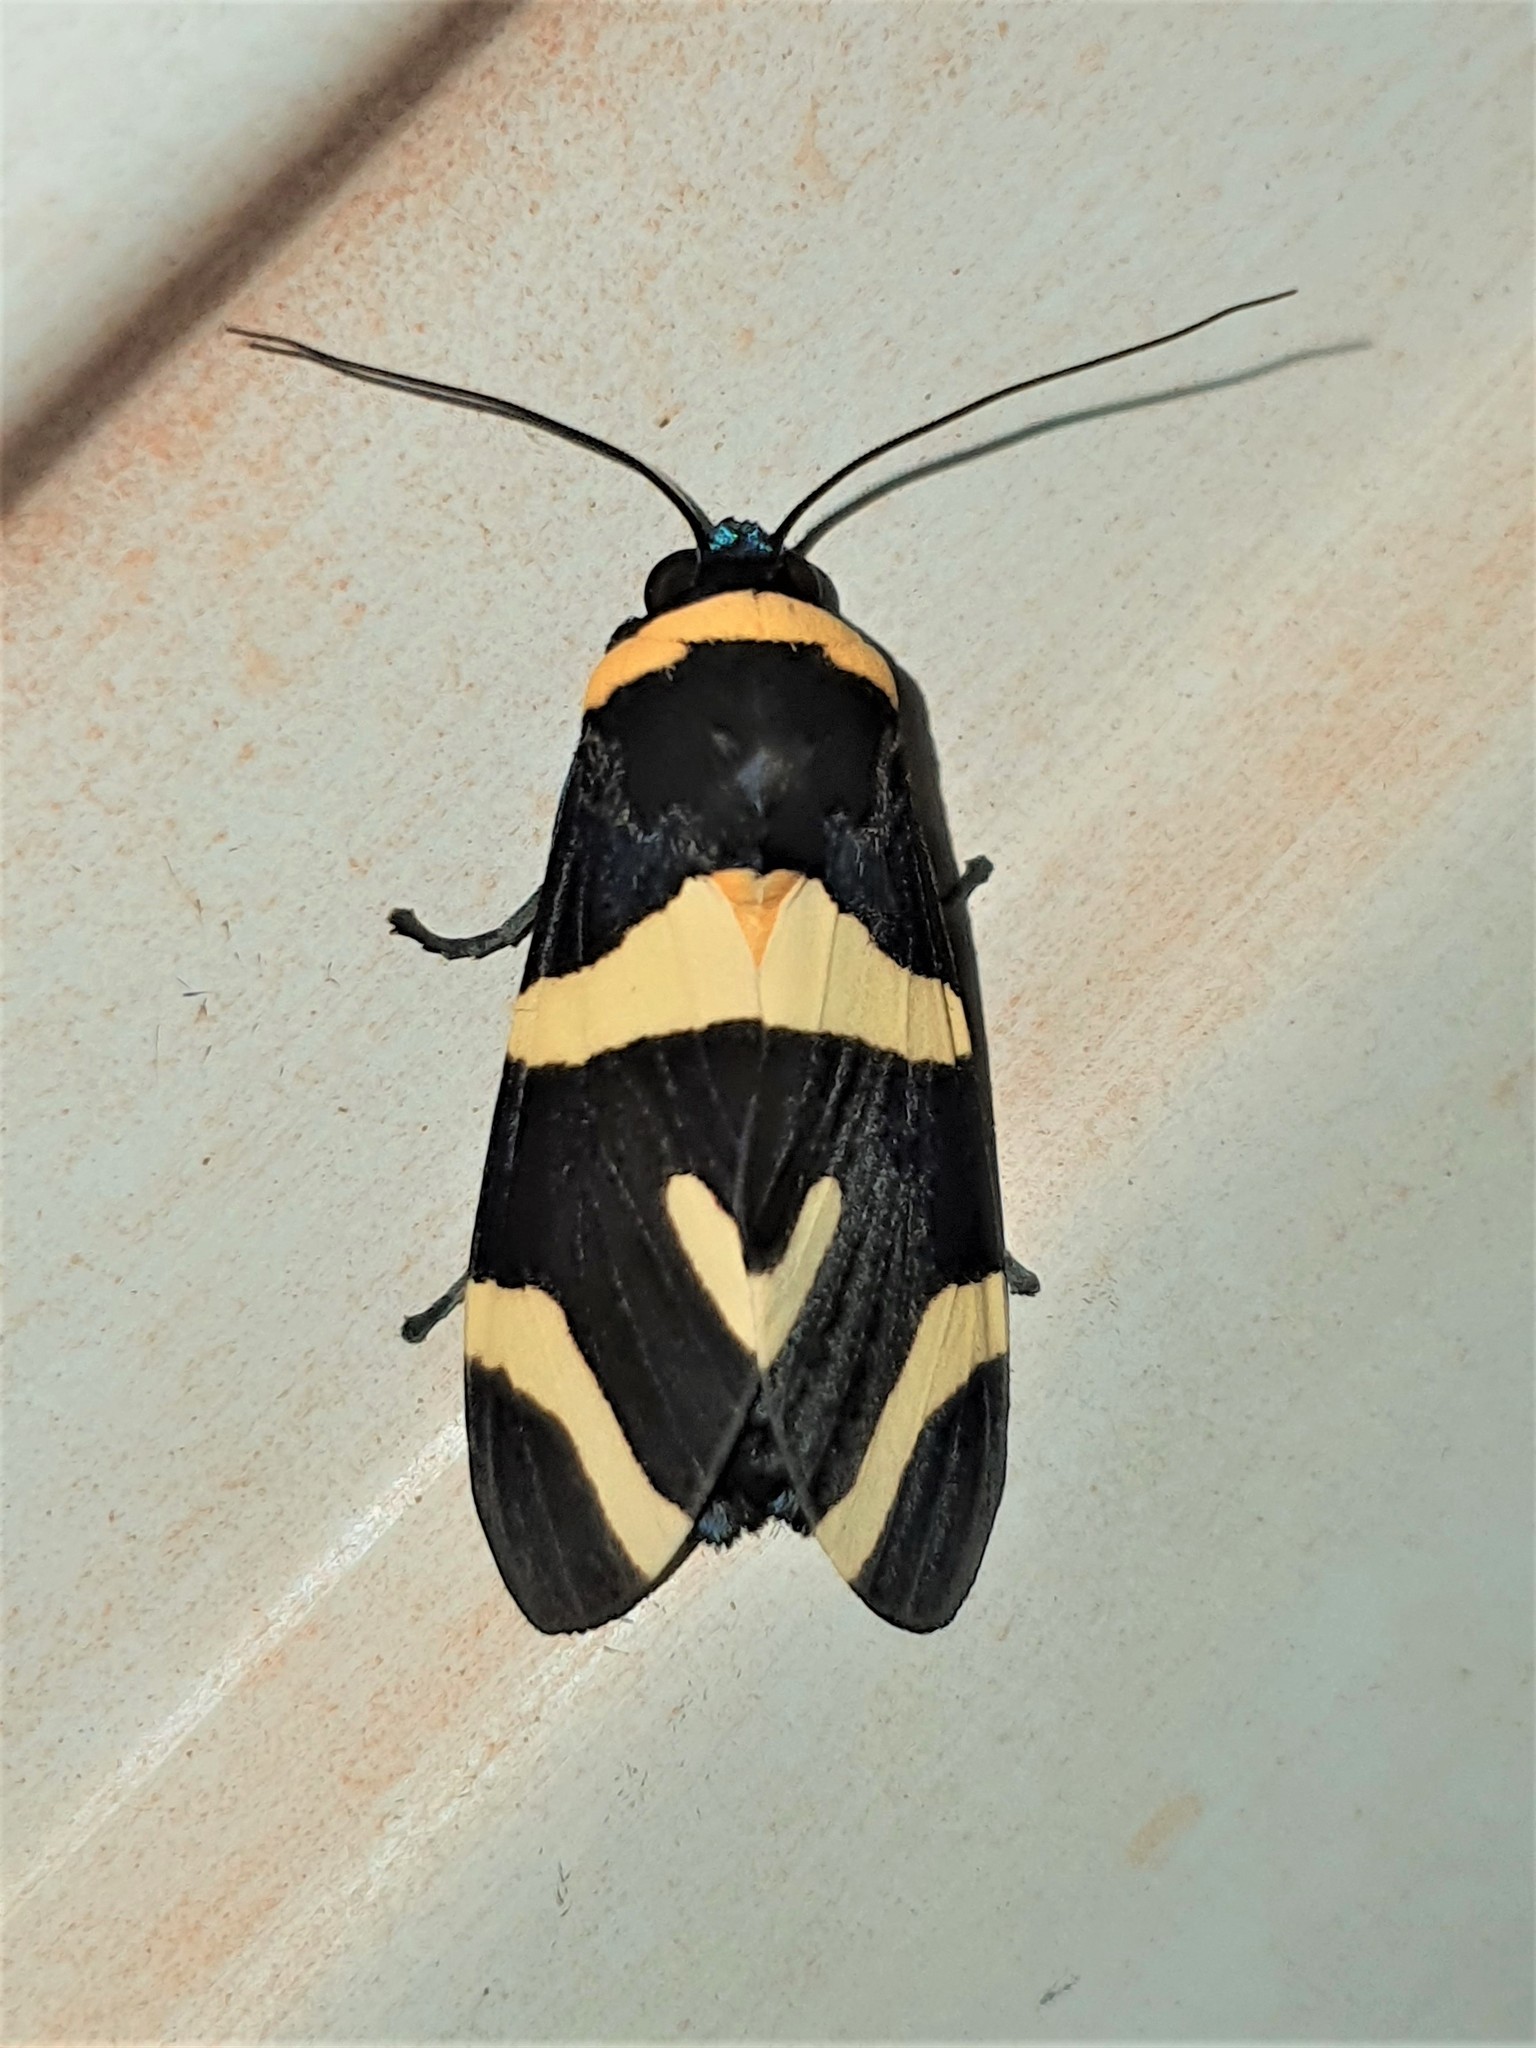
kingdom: Animalia
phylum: Arthropoda
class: Insecta
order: Lepidoptera
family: Erebidae
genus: Viviennea
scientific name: Viviennea zonana
